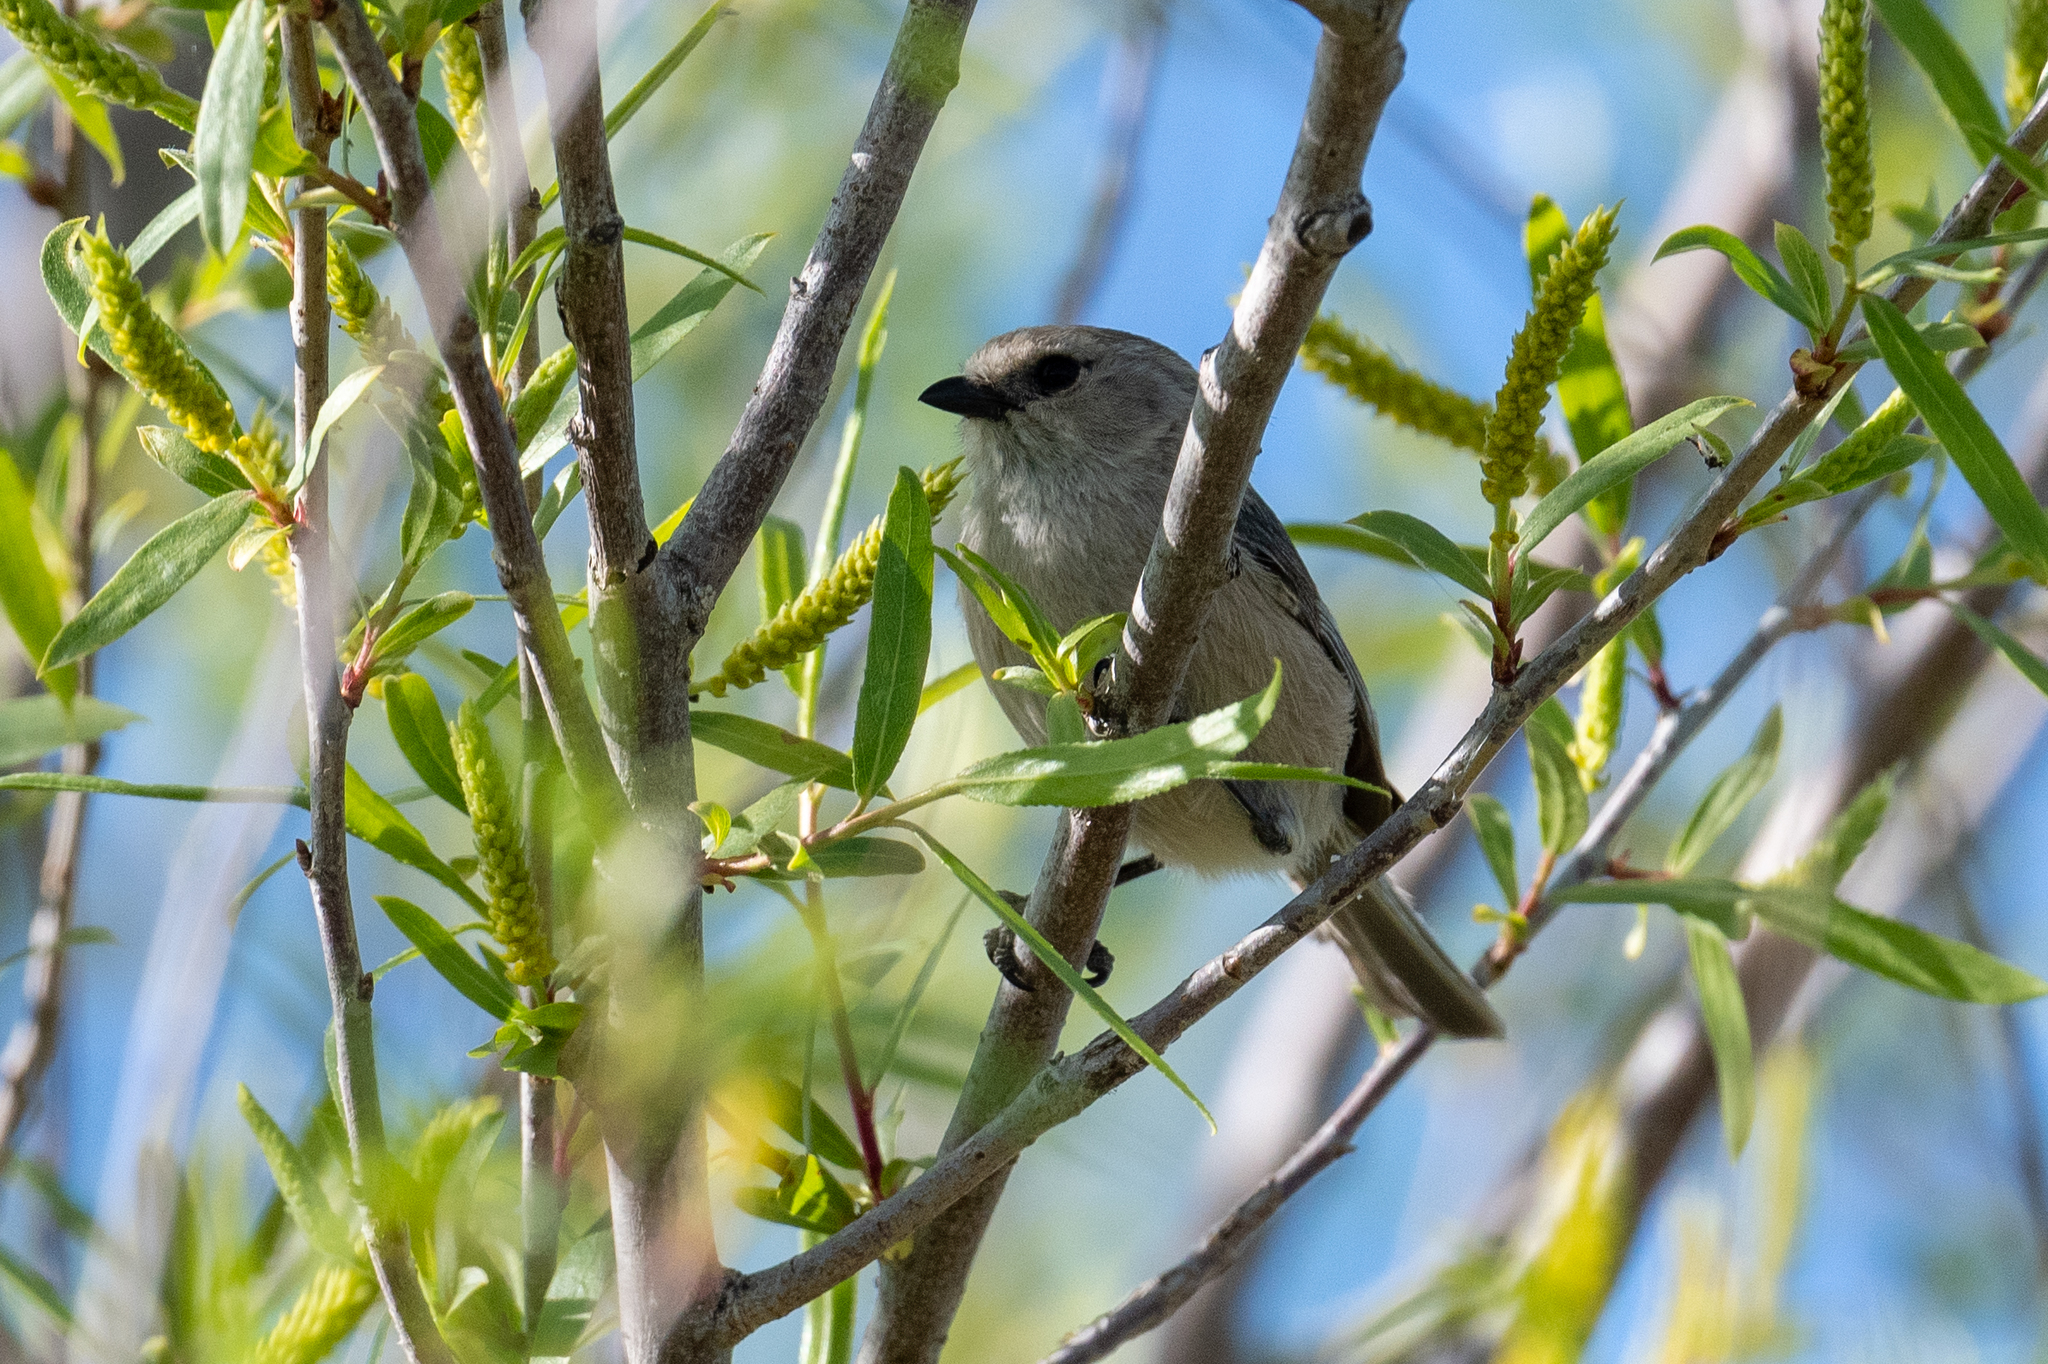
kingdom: Animalia
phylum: Chordata
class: Aves
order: Passeriformes
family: Aegithalidae
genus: Psaltriparus
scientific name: Psaltriparus minimus
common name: American bushtit
